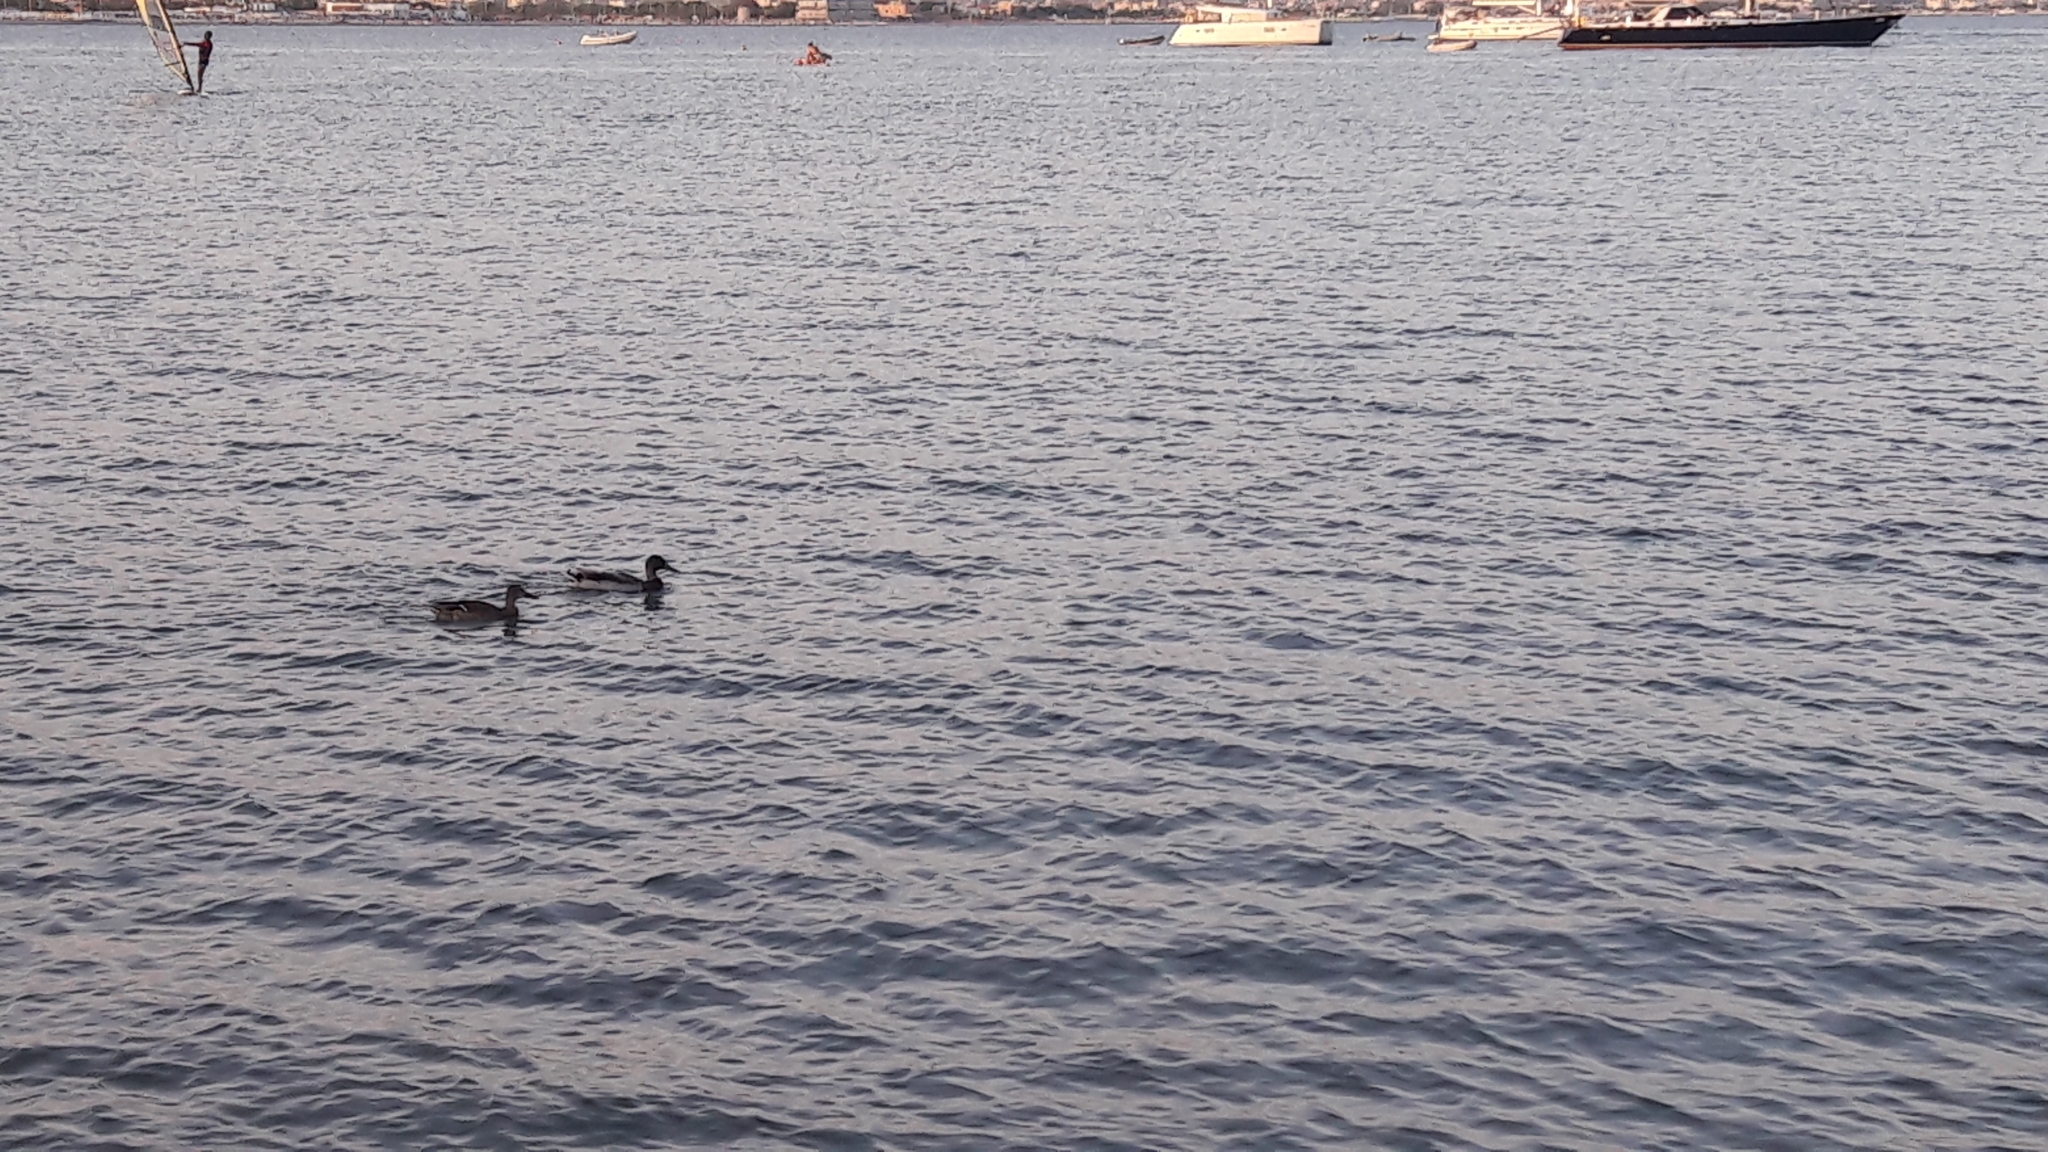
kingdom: Animalia
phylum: Chordata
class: Aves
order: Anseriformes
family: Anatidae
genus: Anas
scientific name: Anas platyrhynchos
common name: Mallard
